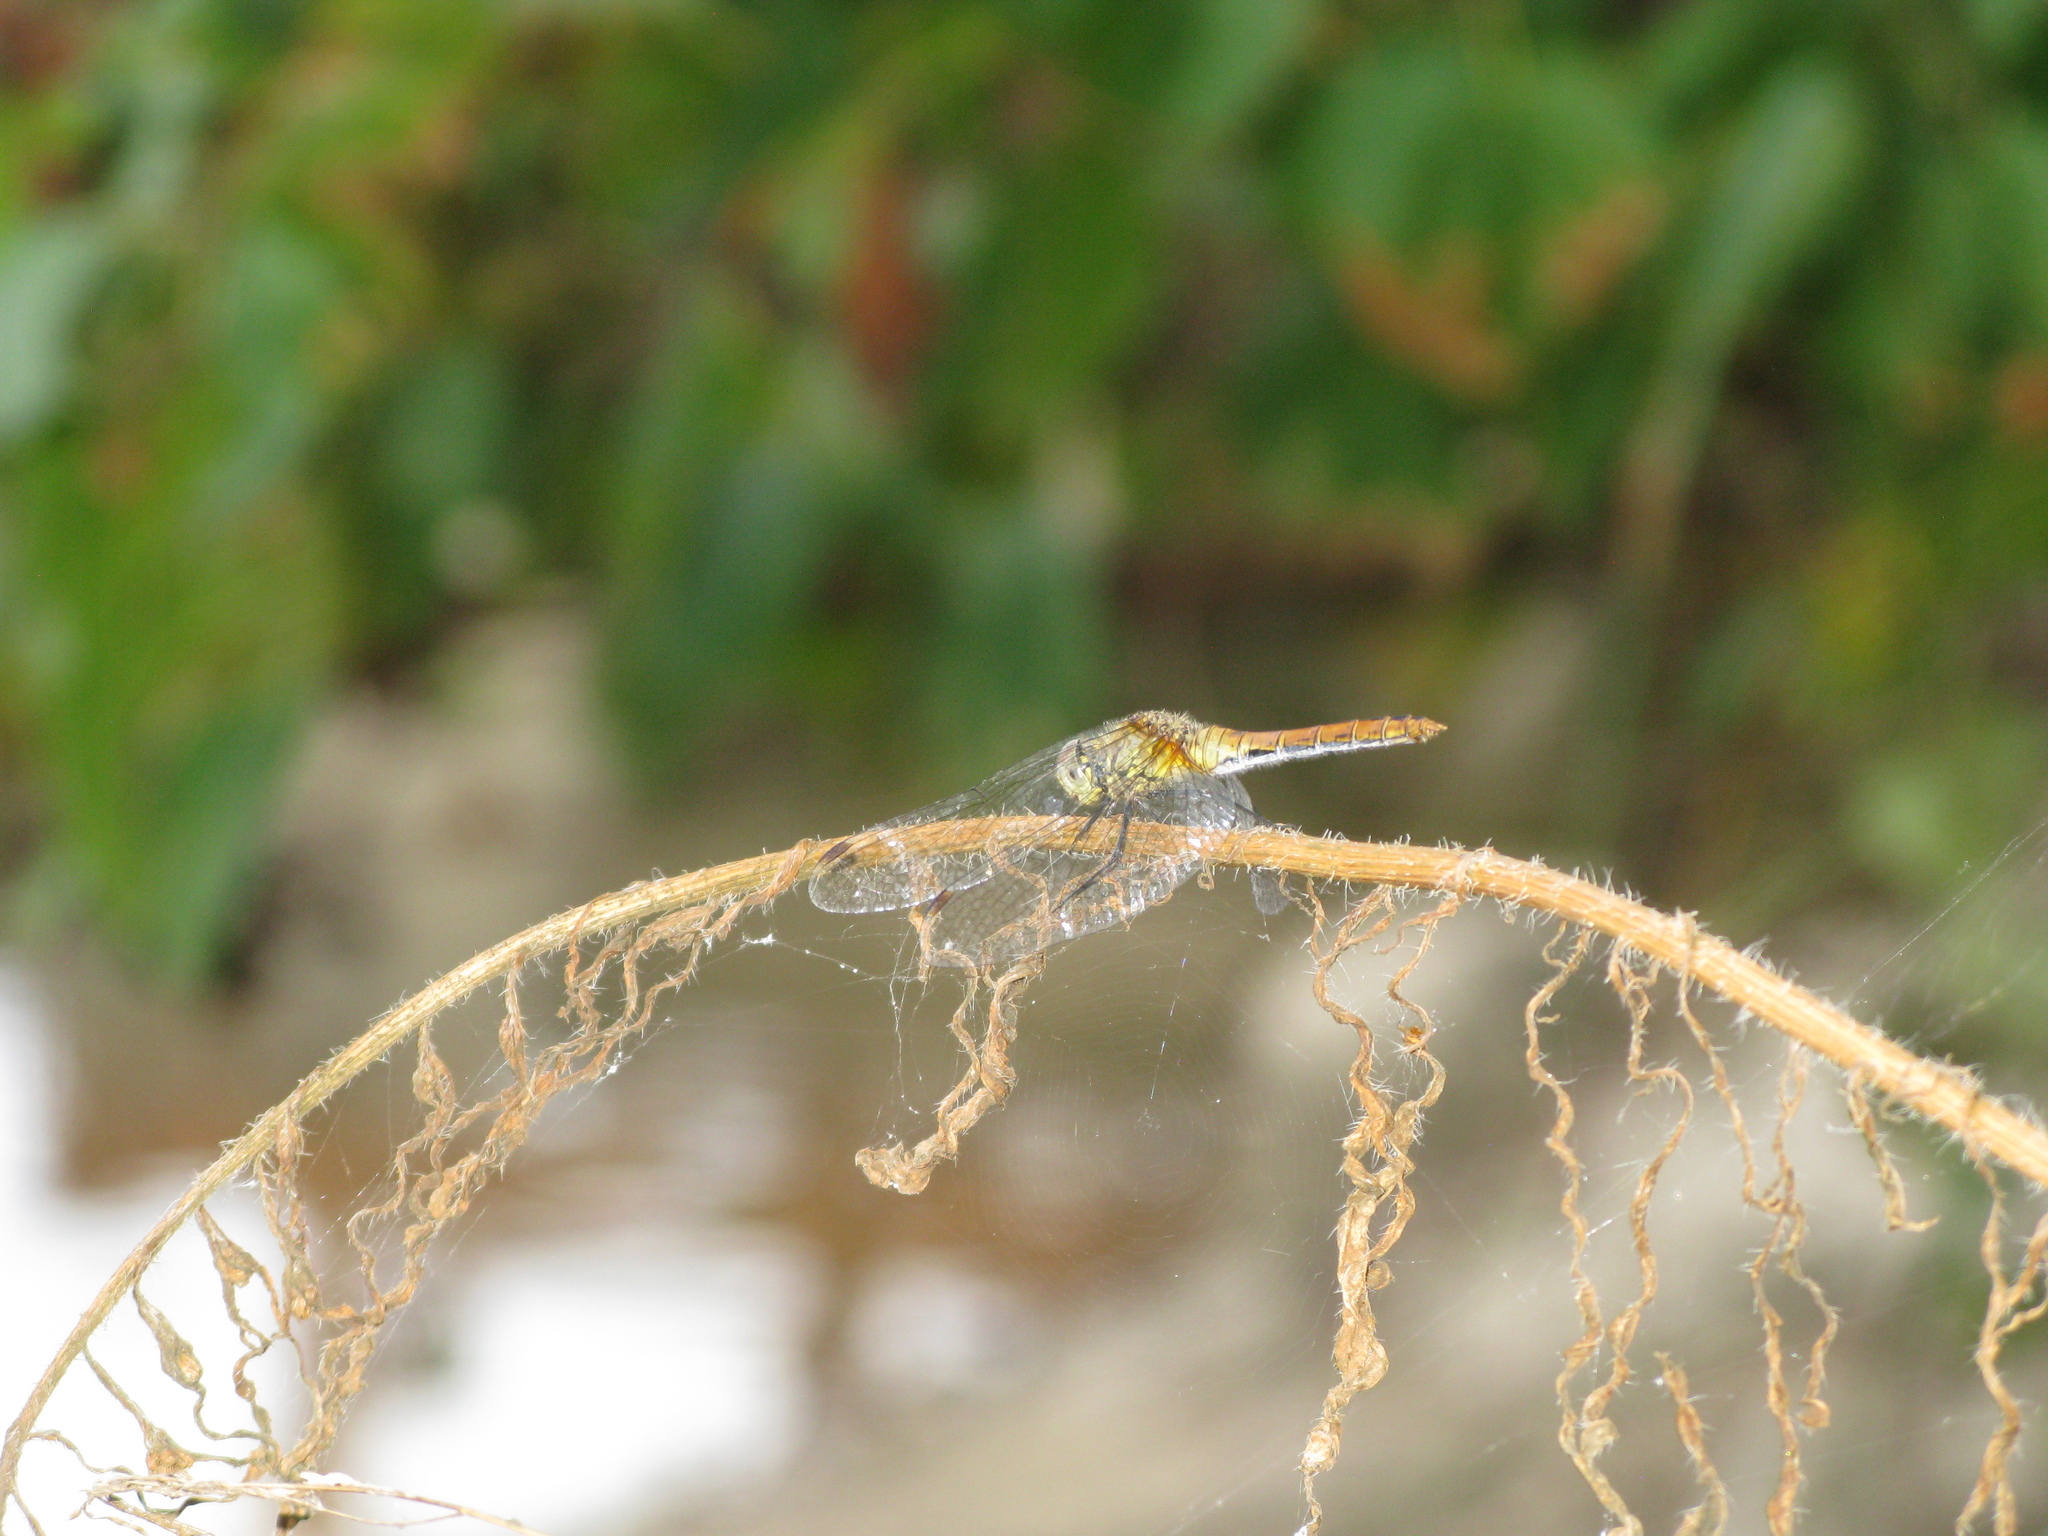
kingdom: Animalia
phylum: Arthropoda
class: Insecta
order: Odonata
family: Libellulidae
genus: Sympetrum
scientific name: Sympetrum sanguineum
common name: Ruddy darter
